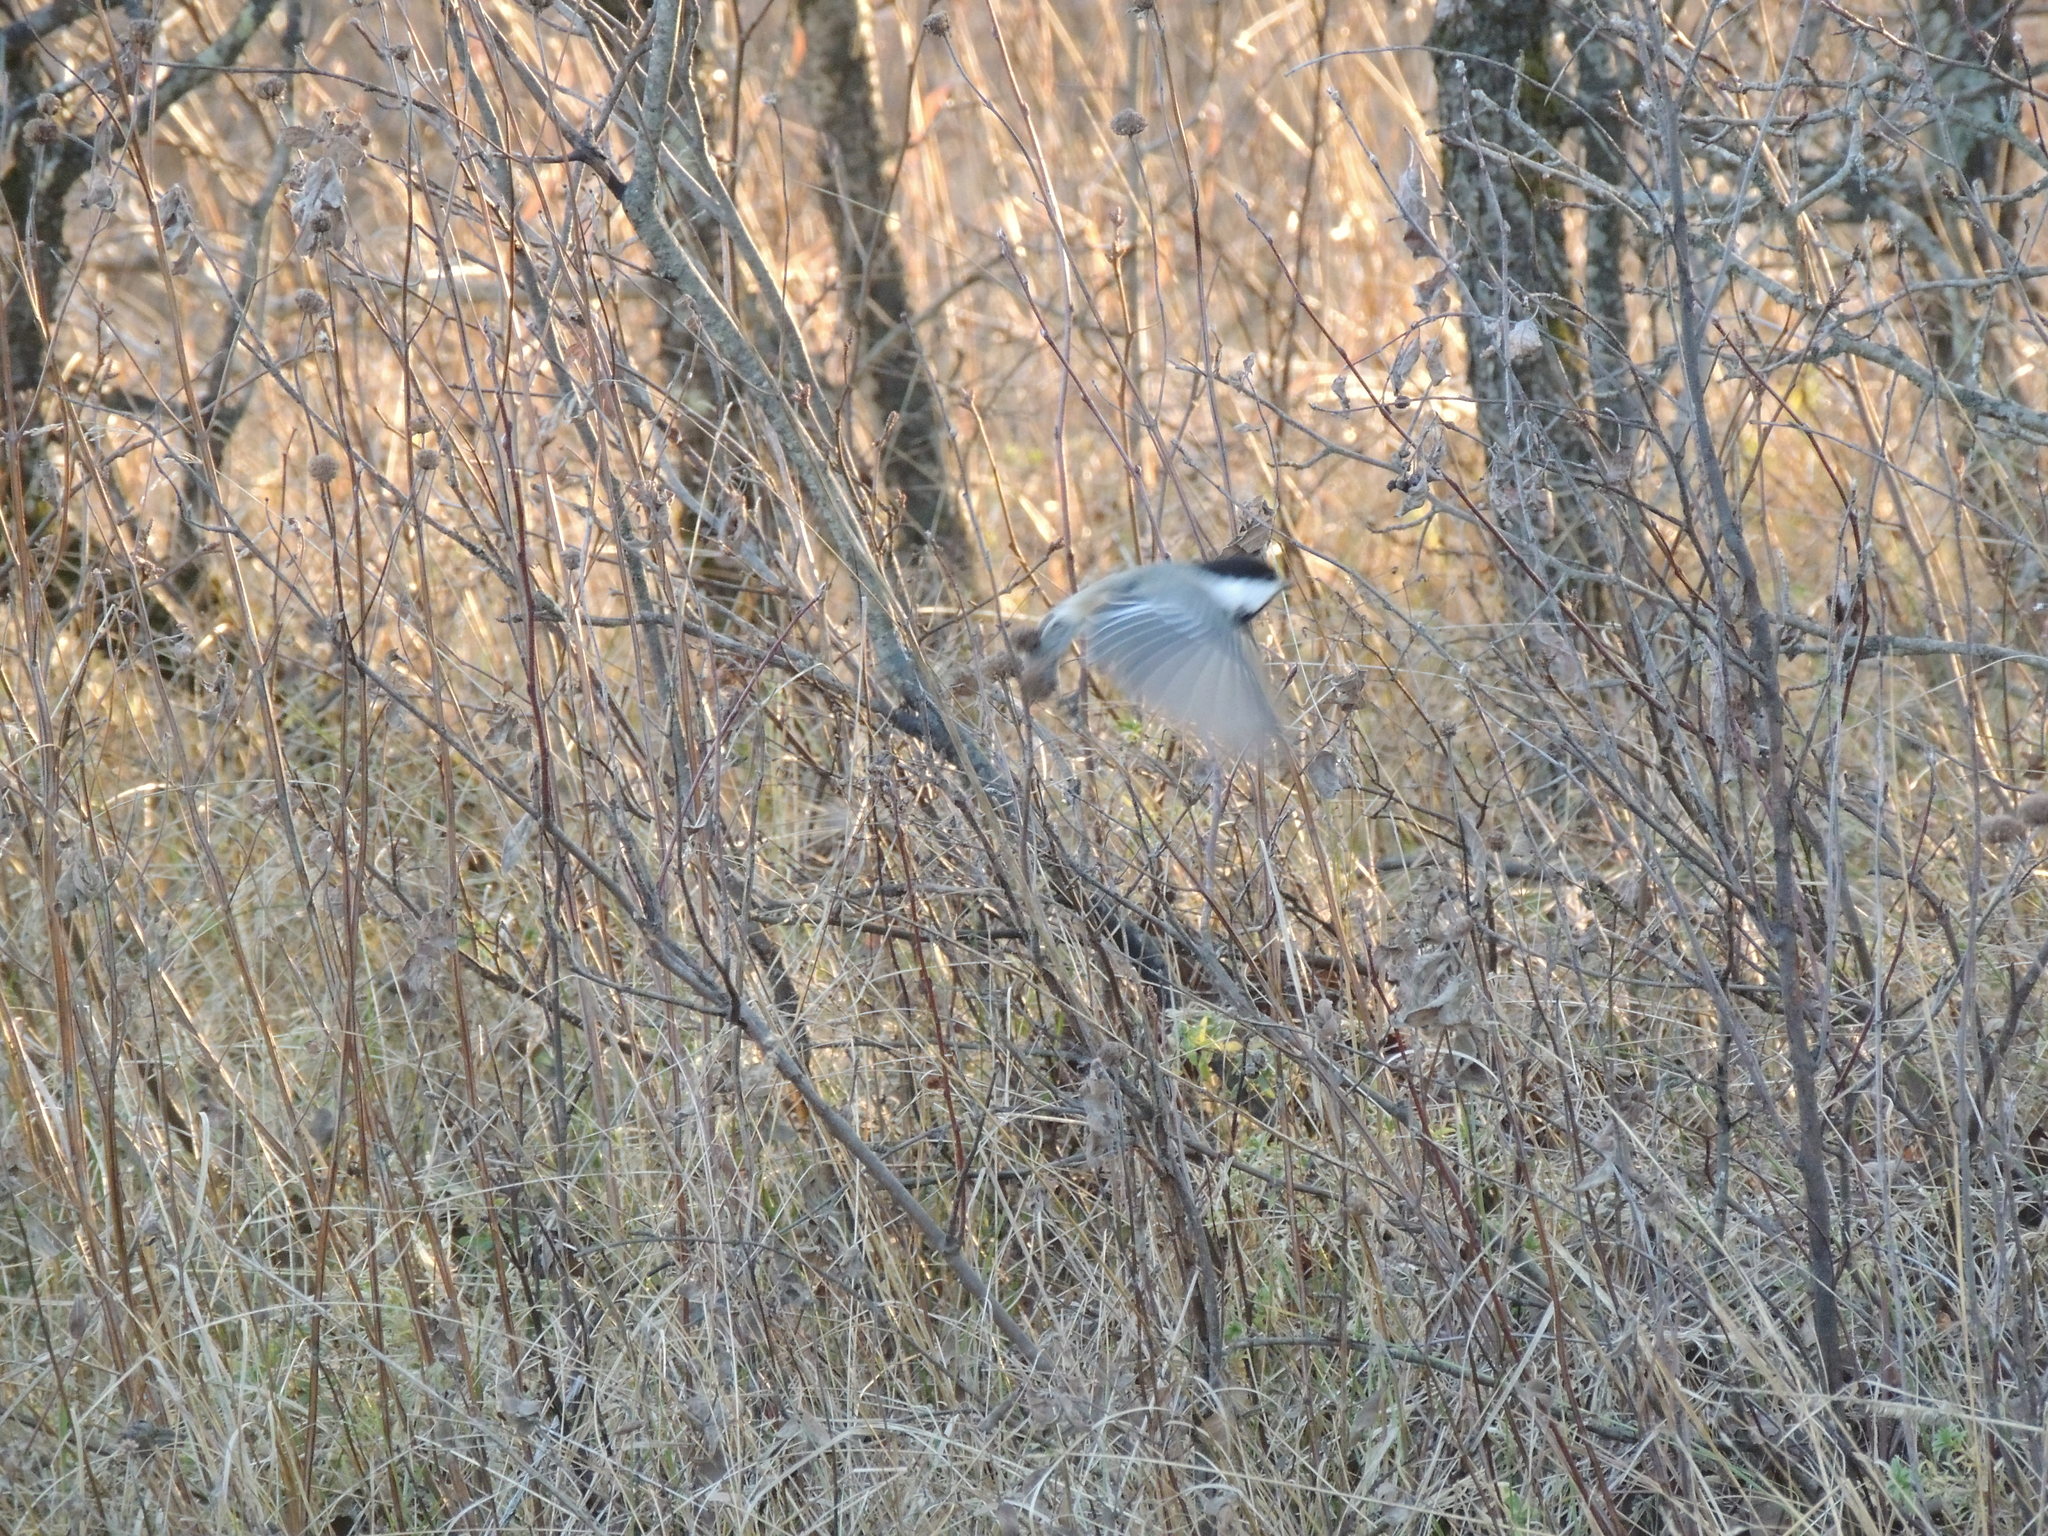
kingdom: Animalia
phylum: Chordata
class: Aves
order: Passeriformes
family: Paridae
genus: Poecile
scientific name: Poecile atricapillus
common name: Black-capped chickadee
